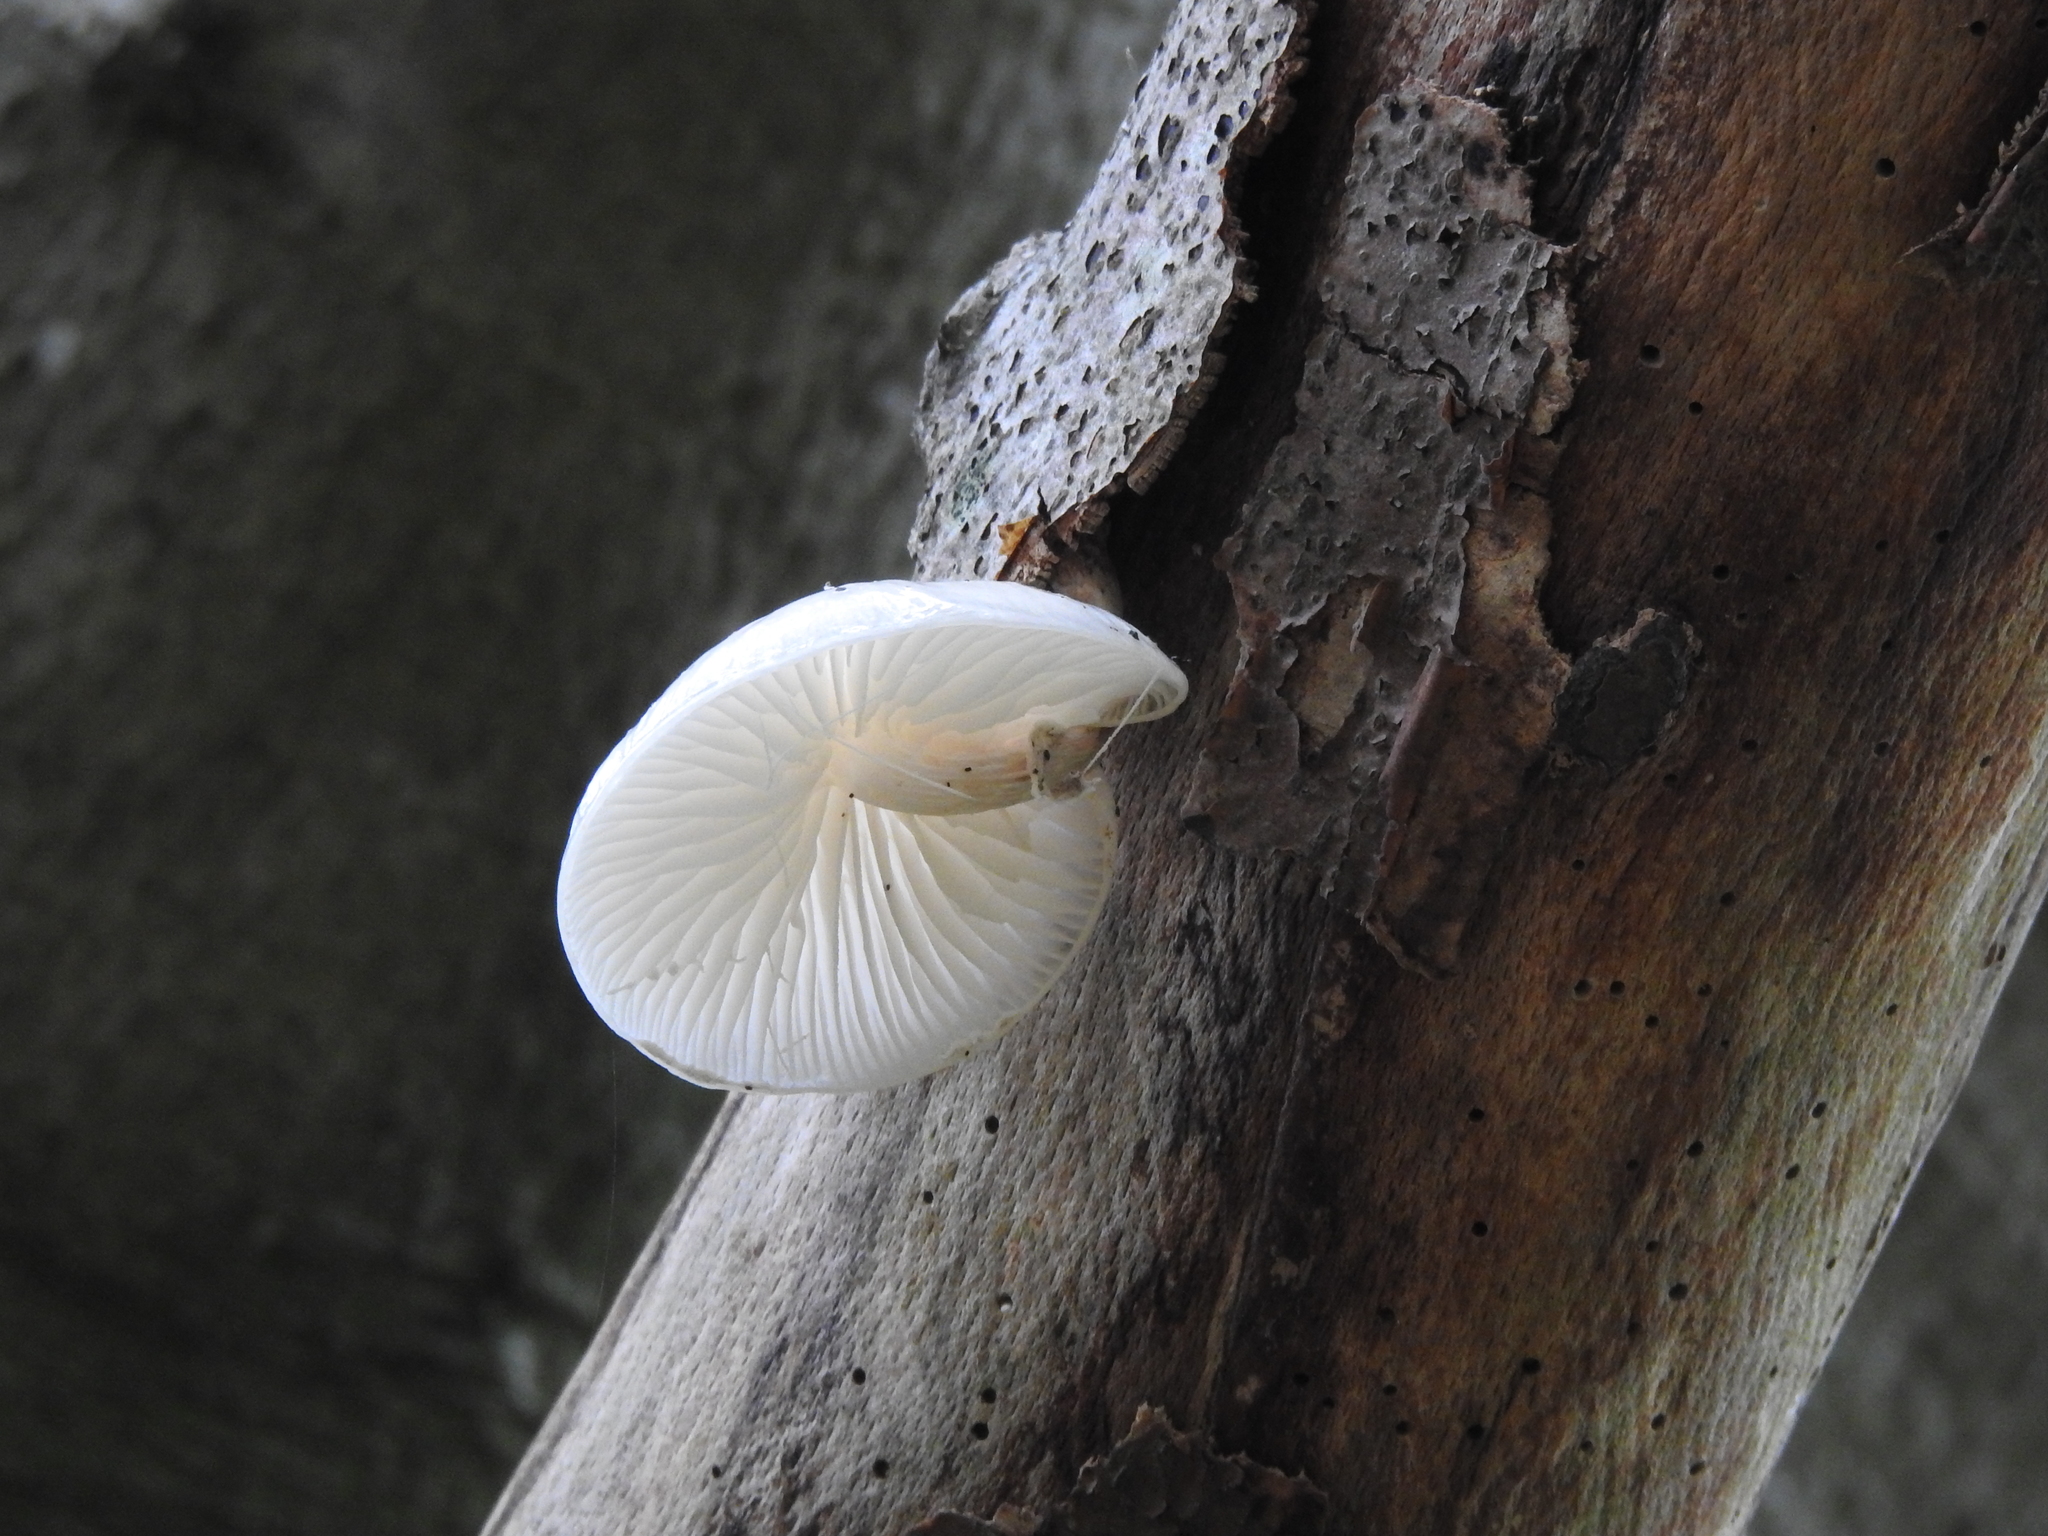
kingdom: Fungi
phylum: Basidiomycota
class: Agaricomycetes
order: Agaricales
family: Physalacriaceae
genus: Mucidula
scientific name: Mucidula mucida
